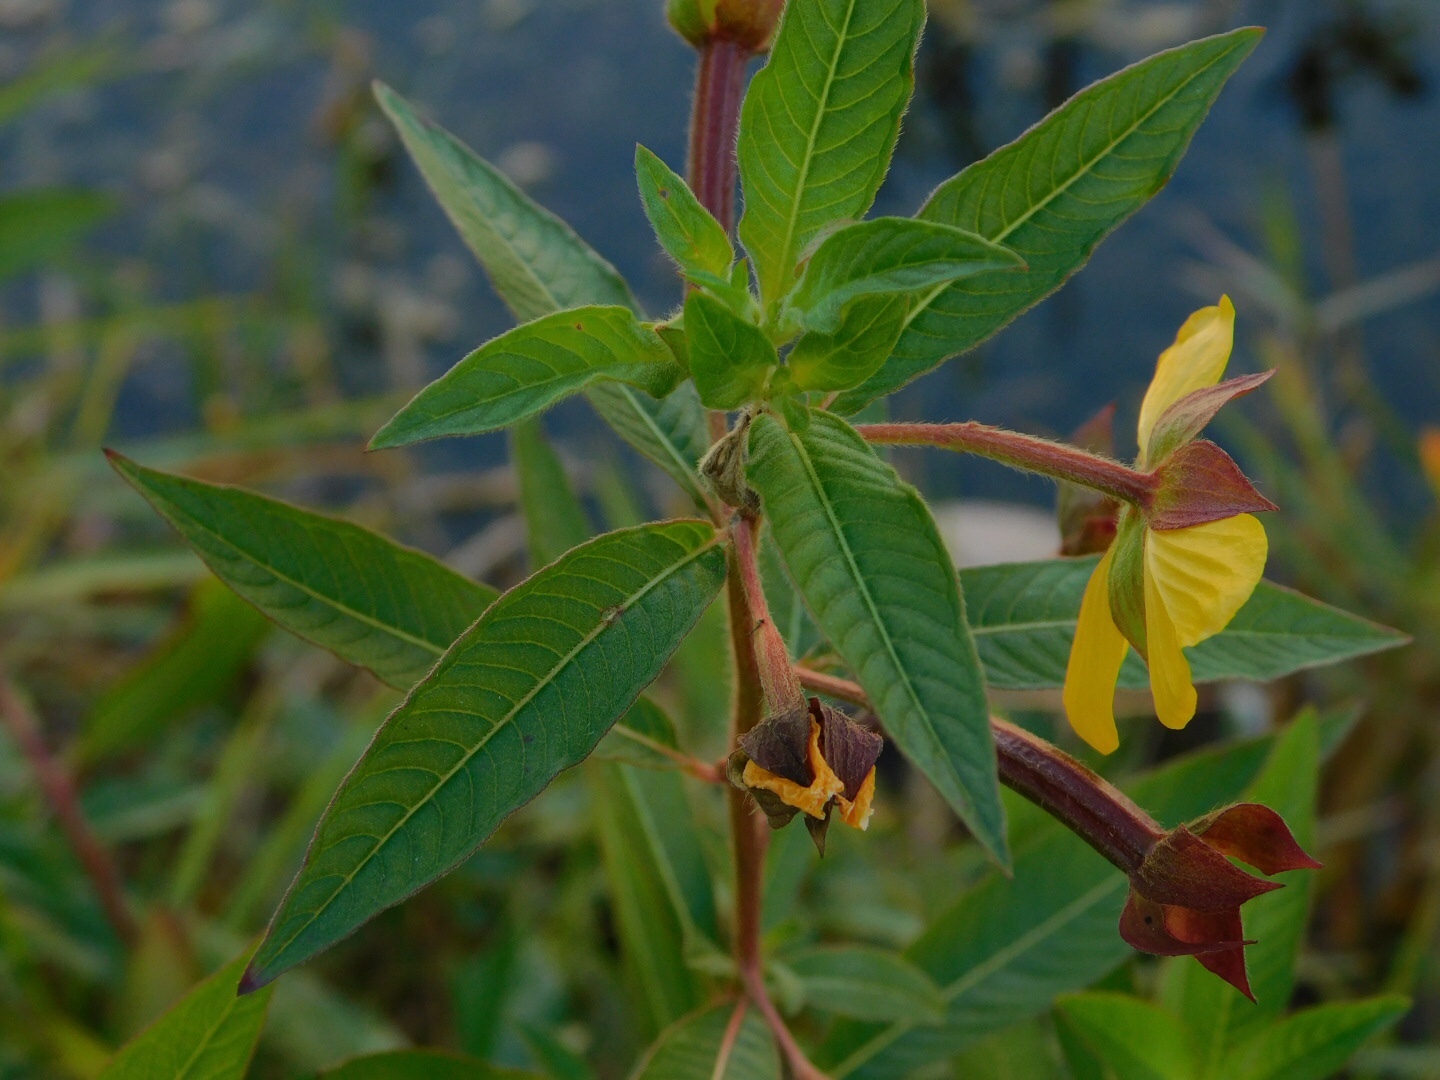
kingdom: Plantae
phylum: Tracheophyta
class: Magnoliopsida
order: Myrtales
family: Onagraceae
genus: Ludwigia
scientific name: Ludwigia octovalvis
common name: Water-primrose
